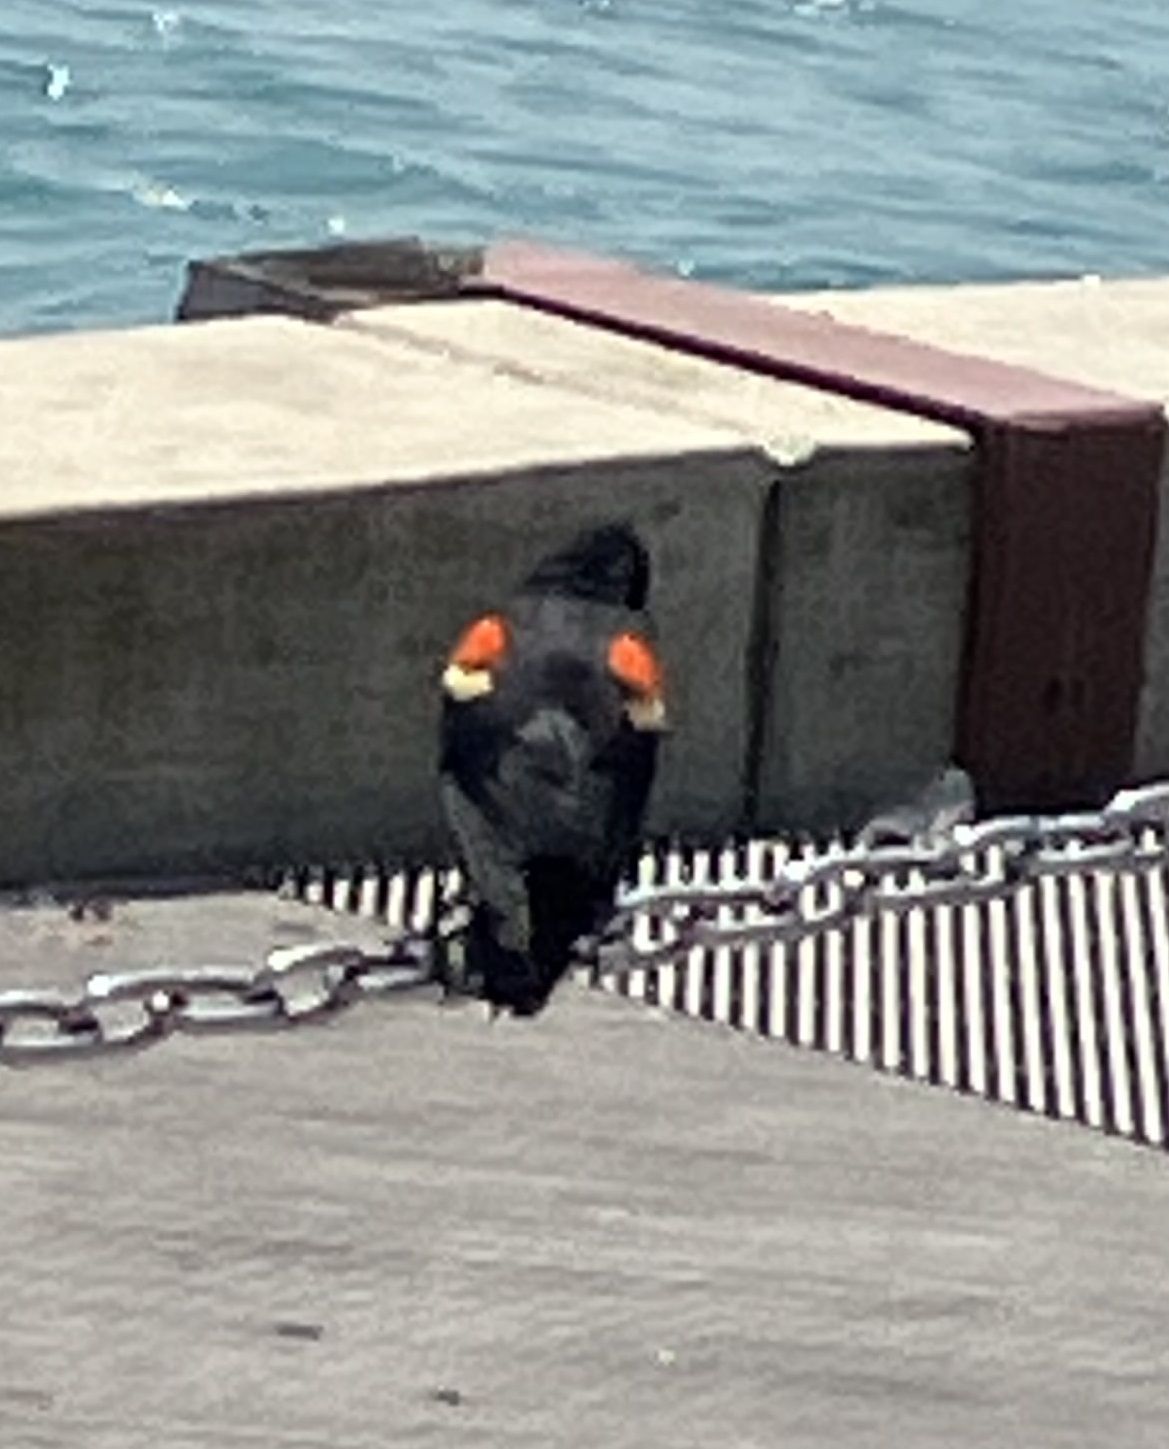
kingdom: Animalia
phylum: Chordata
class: Aves
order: Passeriformes
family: Icteridae
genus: Agelaius
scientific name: Agelaius phoeniceus
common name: Red-winged blackbird
